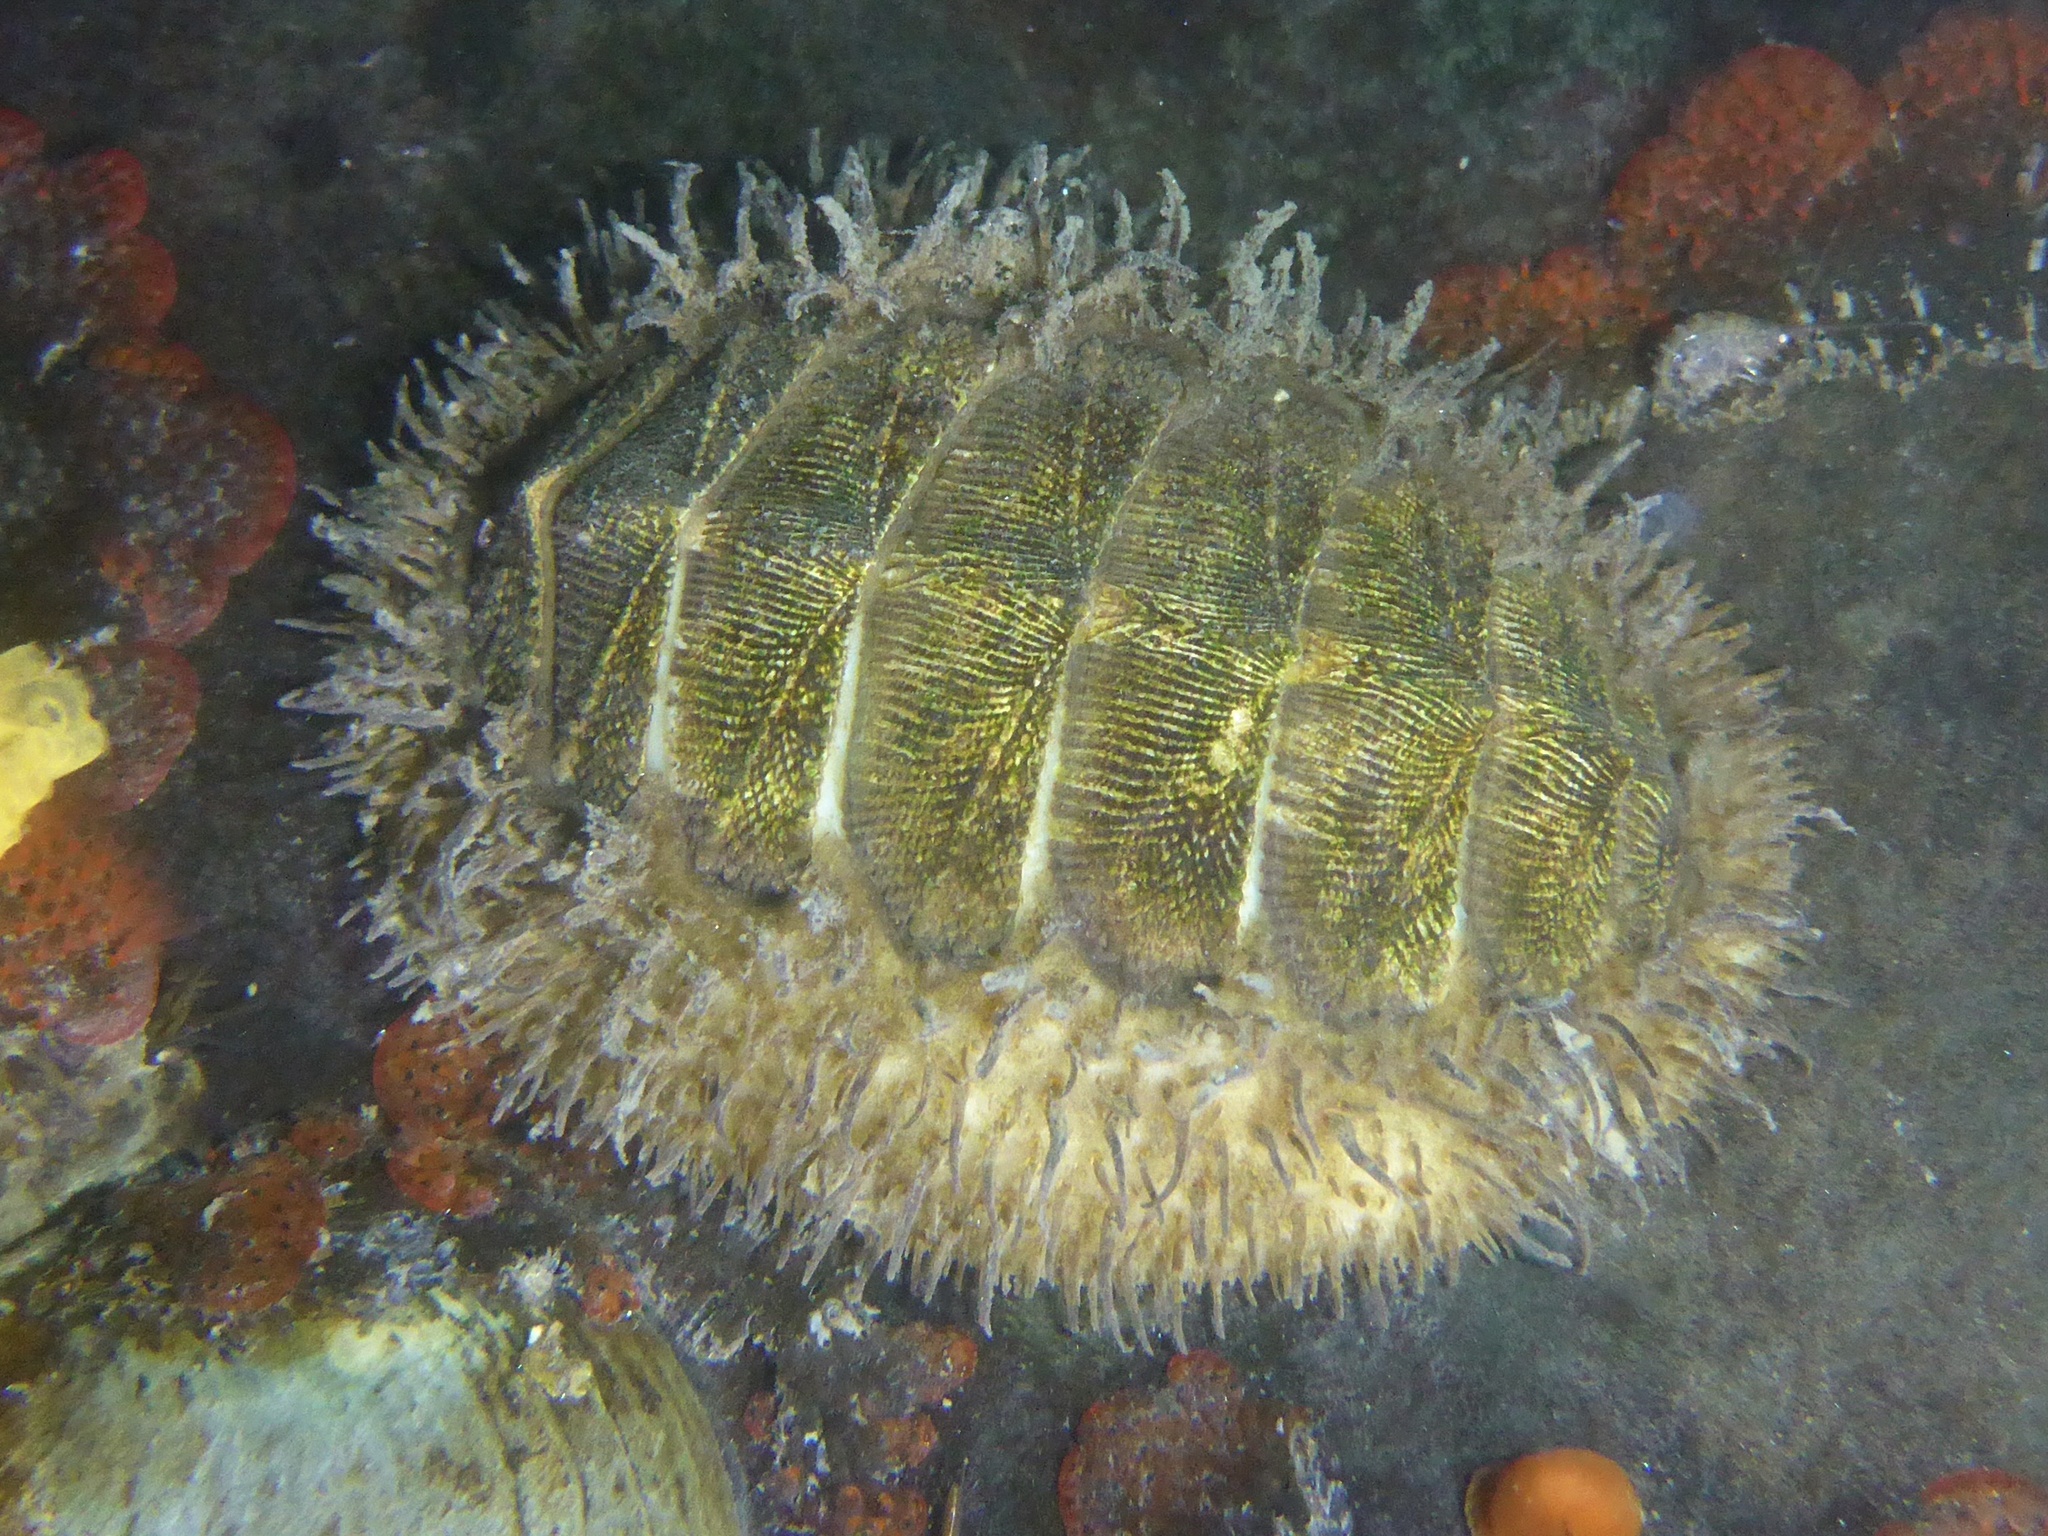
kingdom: Animalia
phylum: Mollusca
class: Polyplacophora
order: Chitonida
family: Mopaliidae
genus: Mopalia
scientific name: Mopalia muscosa
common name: Mossy chiton
